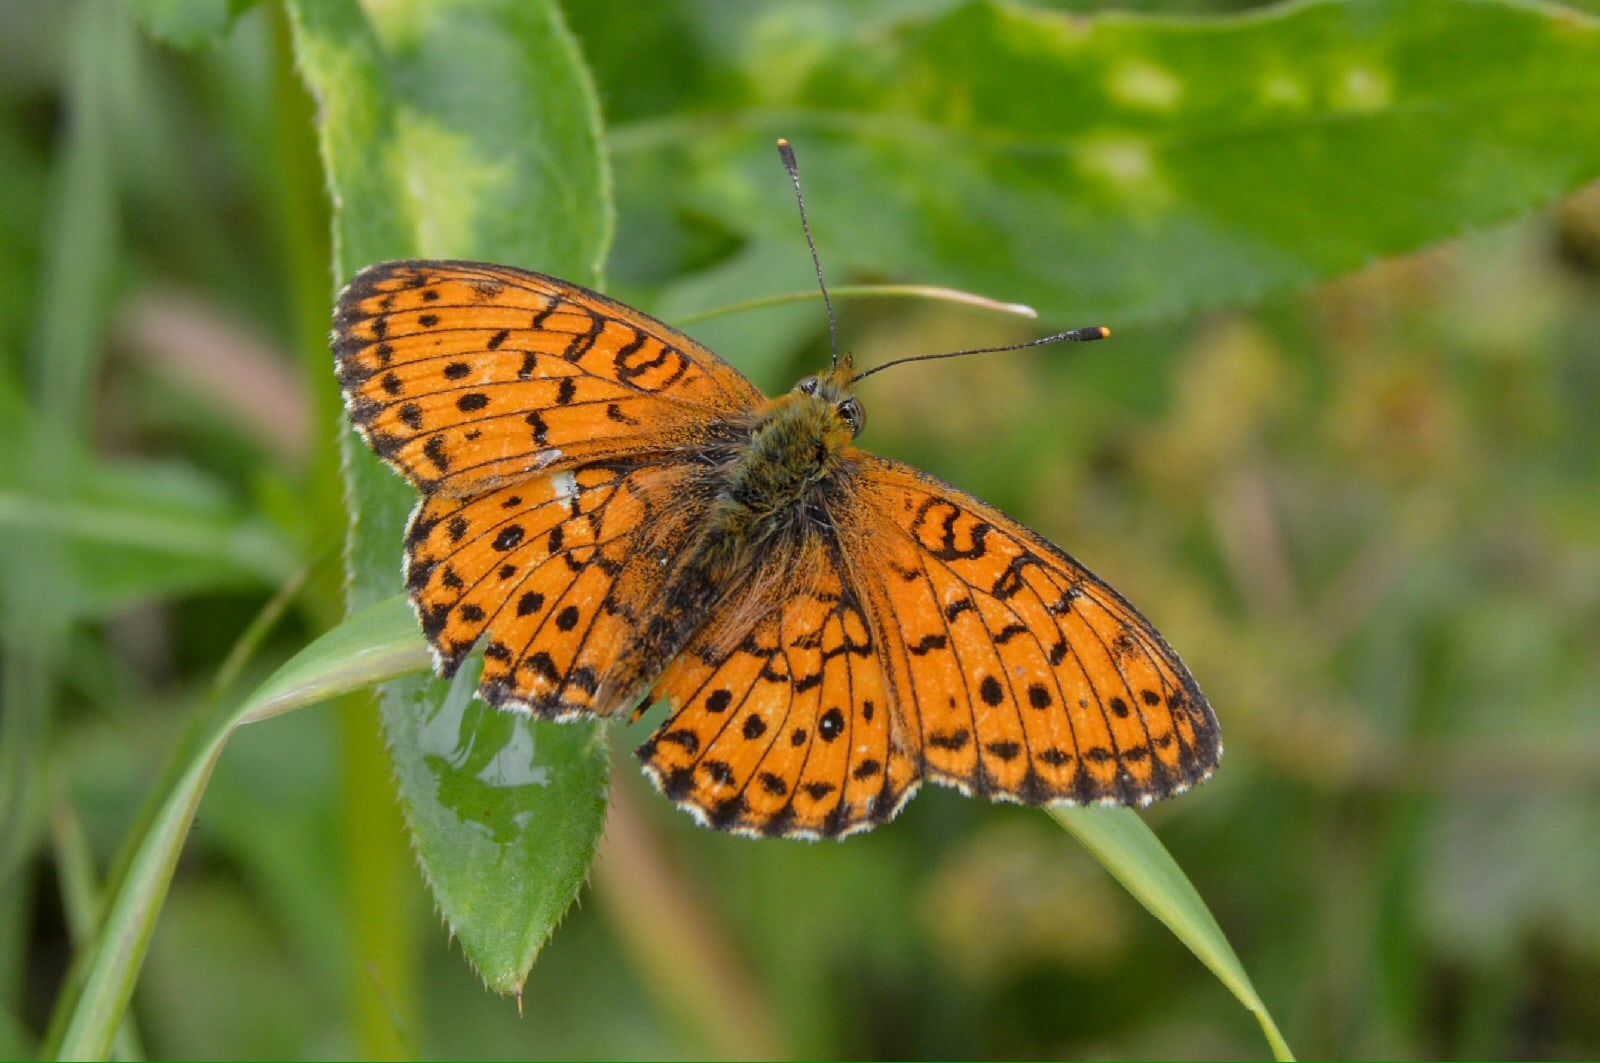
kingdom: Animalia
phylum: Arthropoda
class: Insecta
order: Lepidoptera
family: Nymphalidae
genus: Brenthis
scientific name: Brenthis ino
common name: Lesser marbled fritillary
